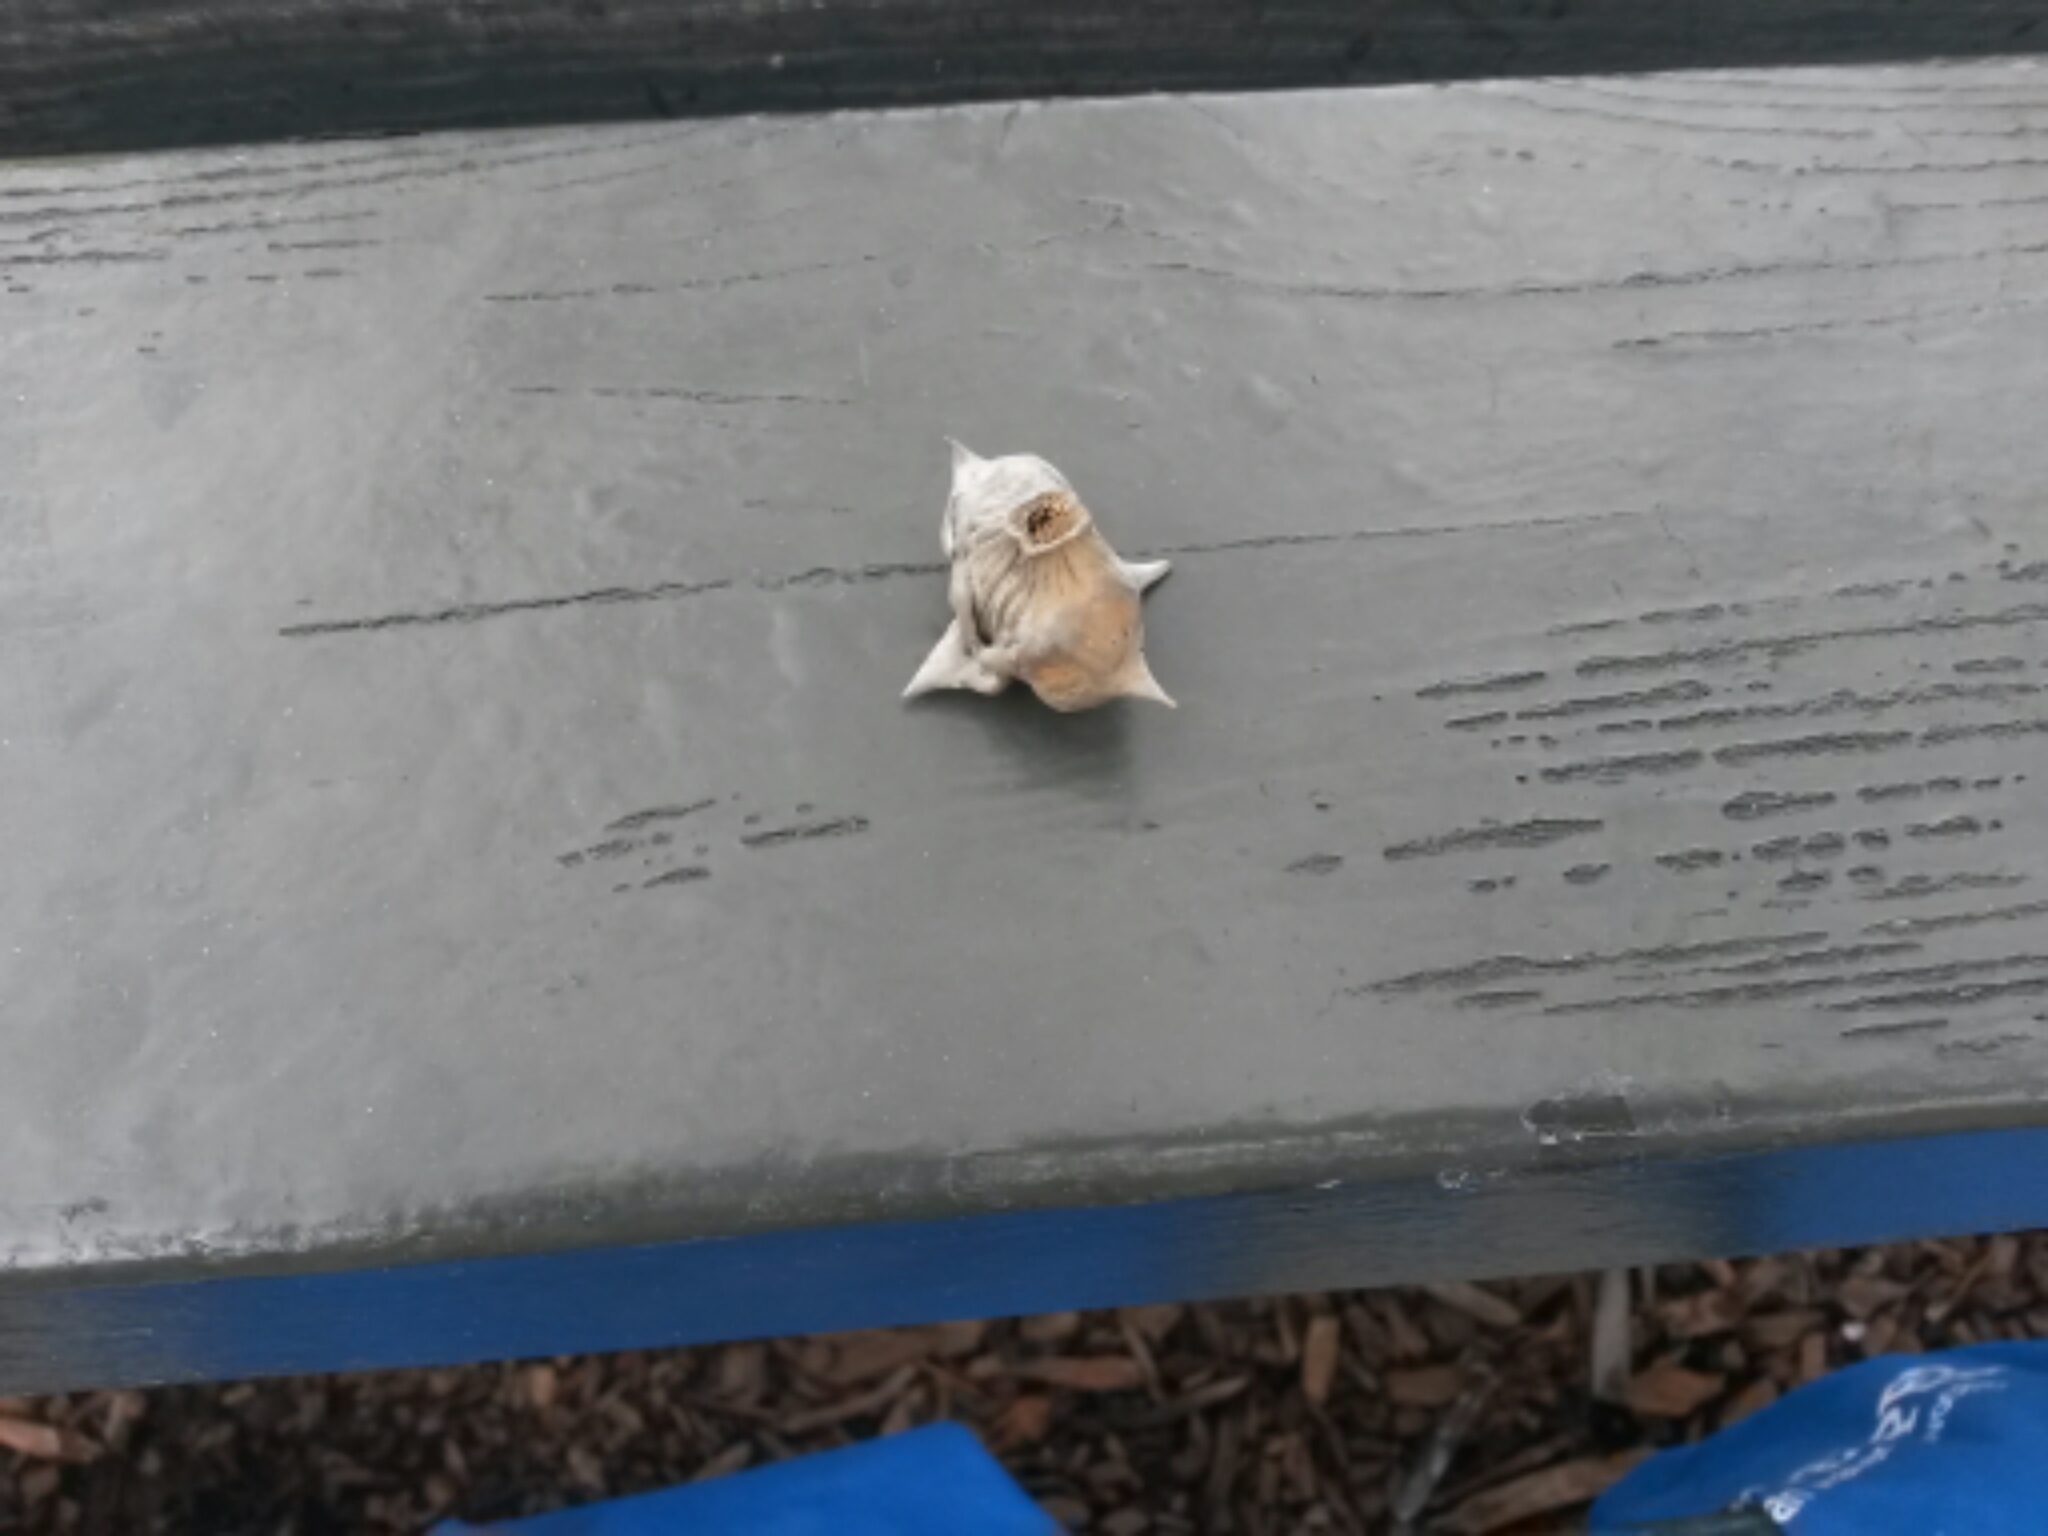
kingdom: Plantae
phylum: Tracheophyta
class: Magnoliopsida
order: Myrtales
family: Lythraceae
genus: Trapa
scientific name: Trapa natans
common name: Water chestnut
